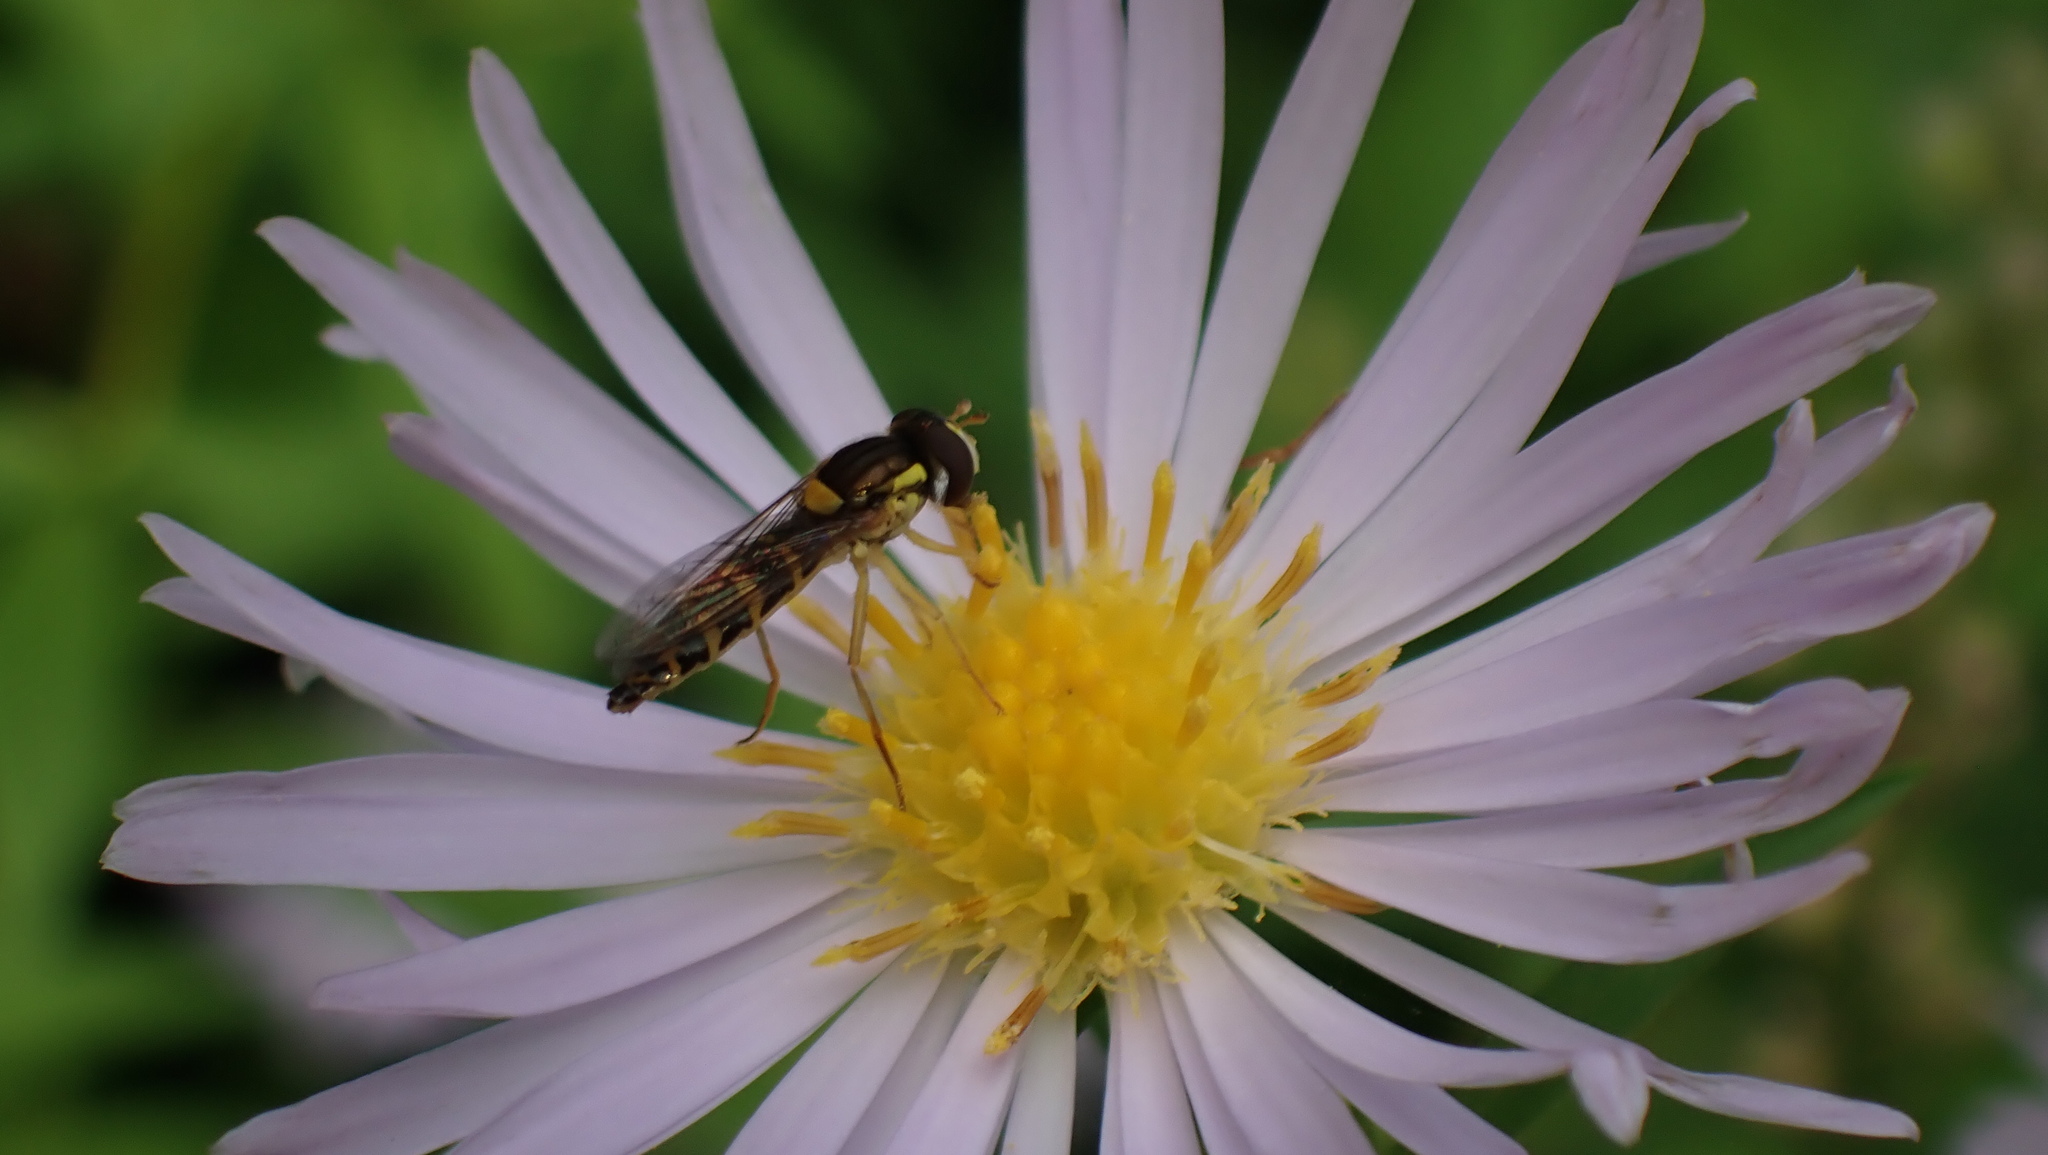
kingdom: Animalia
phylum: Arthropoda
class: Insecta
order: Diptera
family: Syrphidae
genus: Sphaerophoria
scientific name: Sphaerophoria
